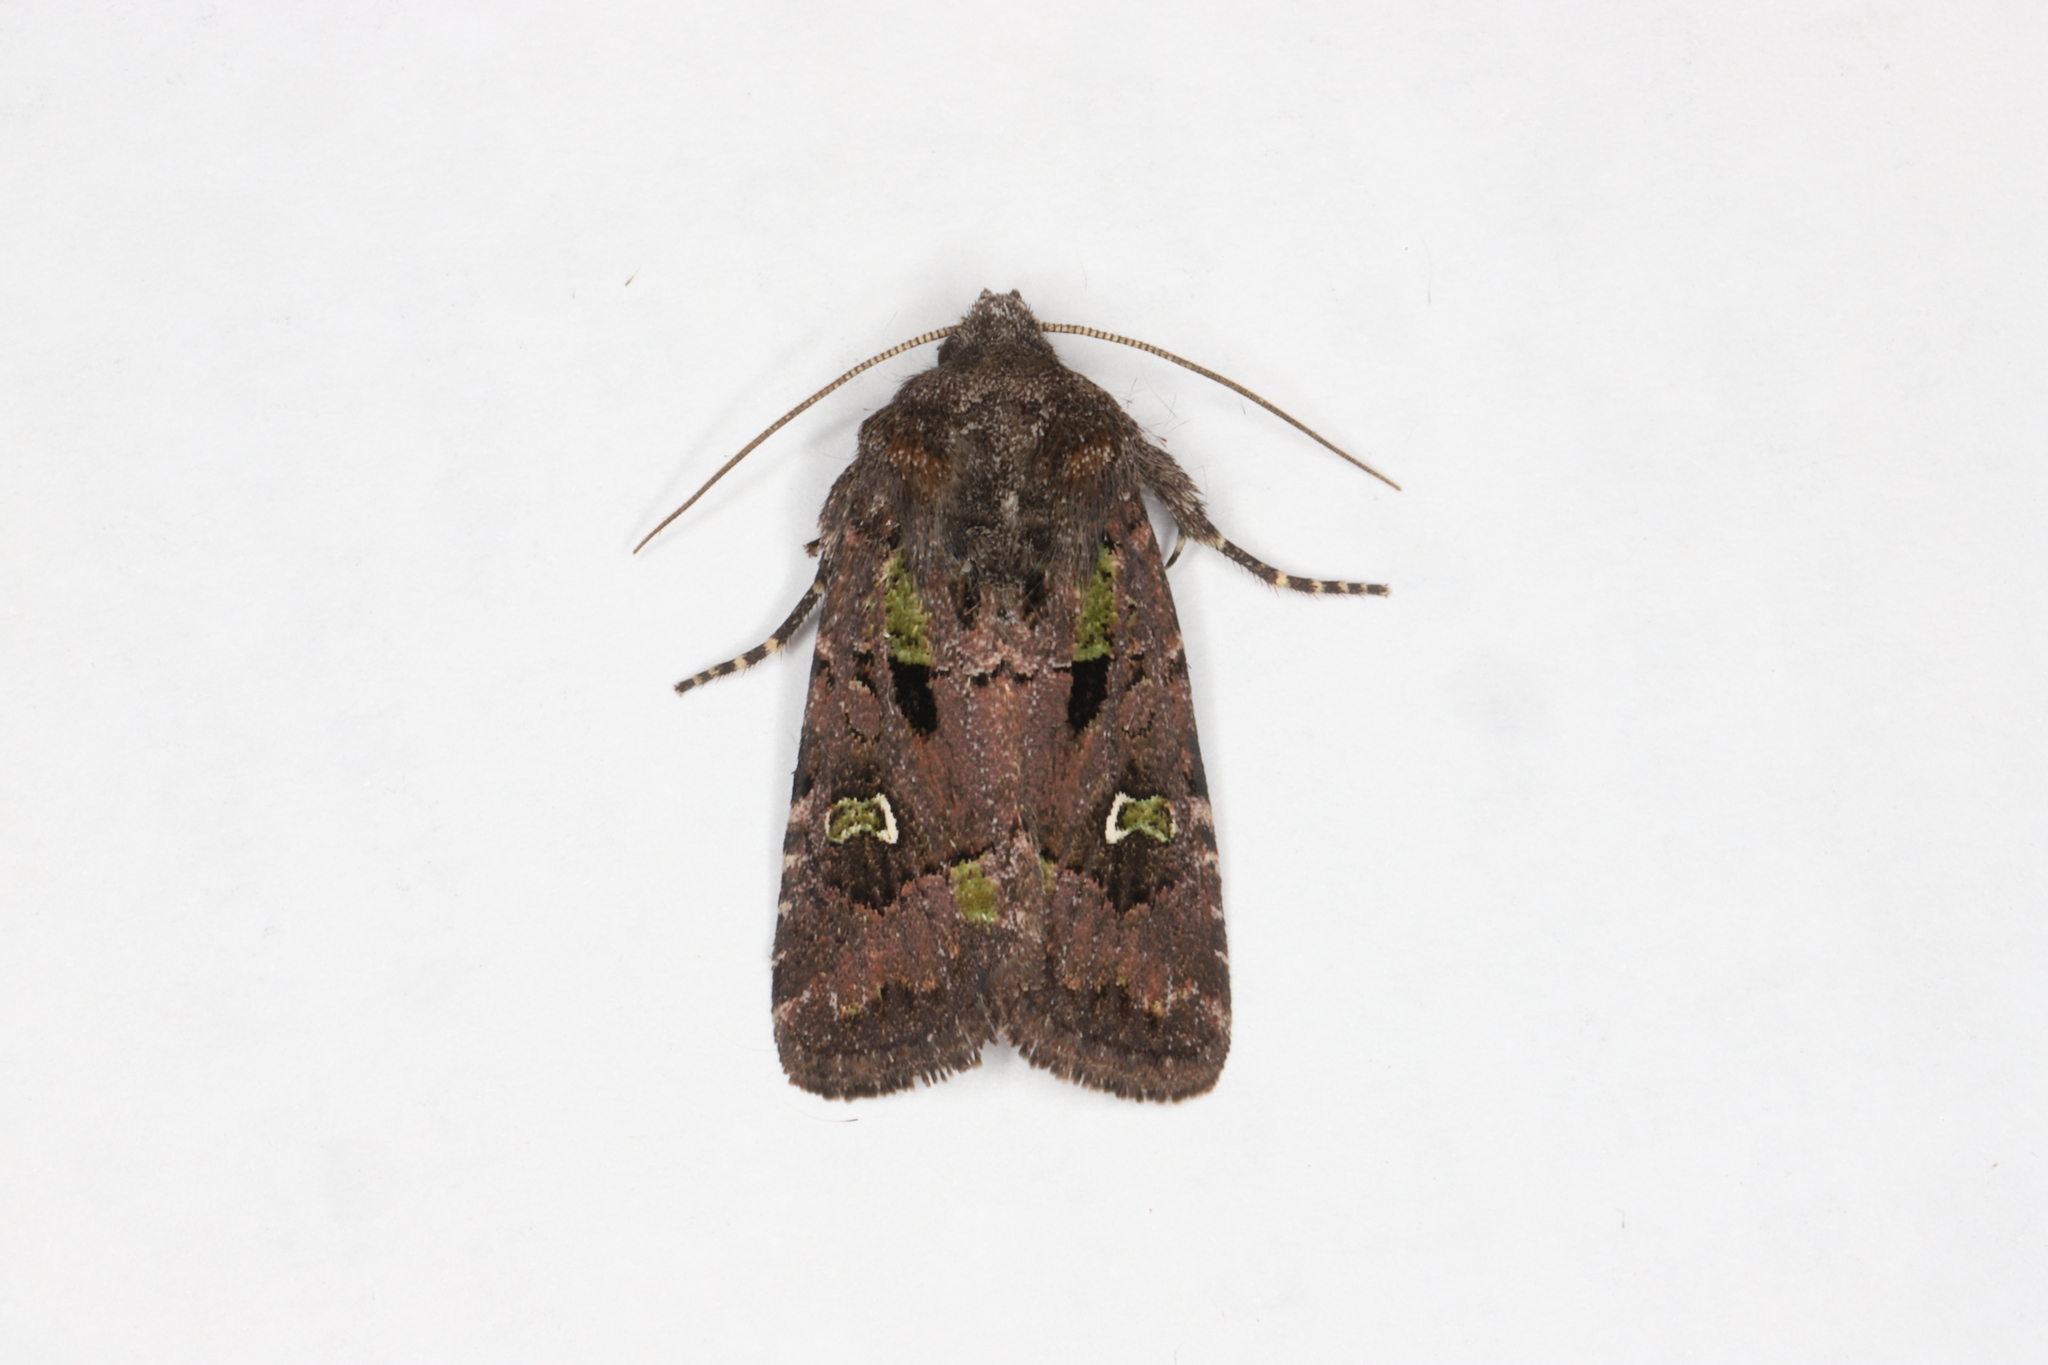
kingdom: Animalia
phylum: Arthropoda
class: Insecta
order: Lepidoptera
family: Noctuidae
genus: Lacinipolia
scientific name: Lacinipolia renigera
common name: Kidney-spotted minor
